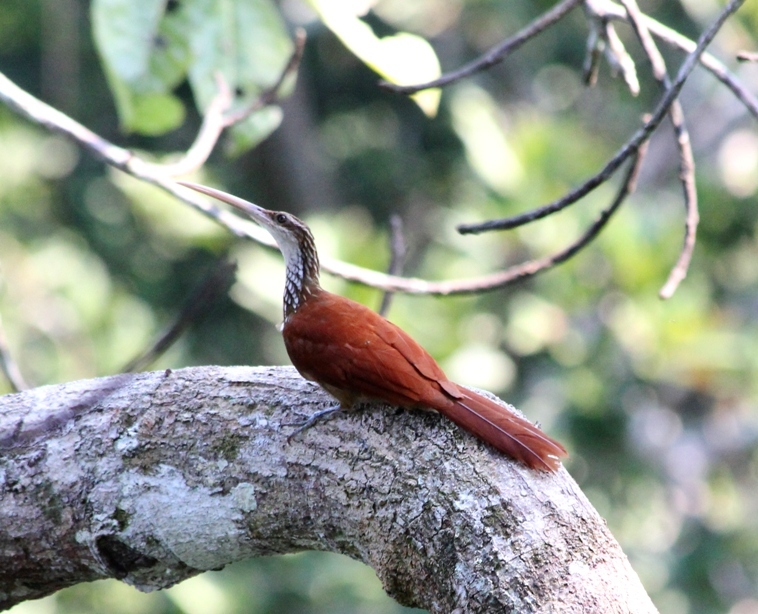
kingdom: Animalia
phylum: Chordata
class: Aves
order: Passeriformes
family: Furnariidae
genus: Nasica
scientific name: Nasica longirostris
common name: Long-billed woodcreeper
